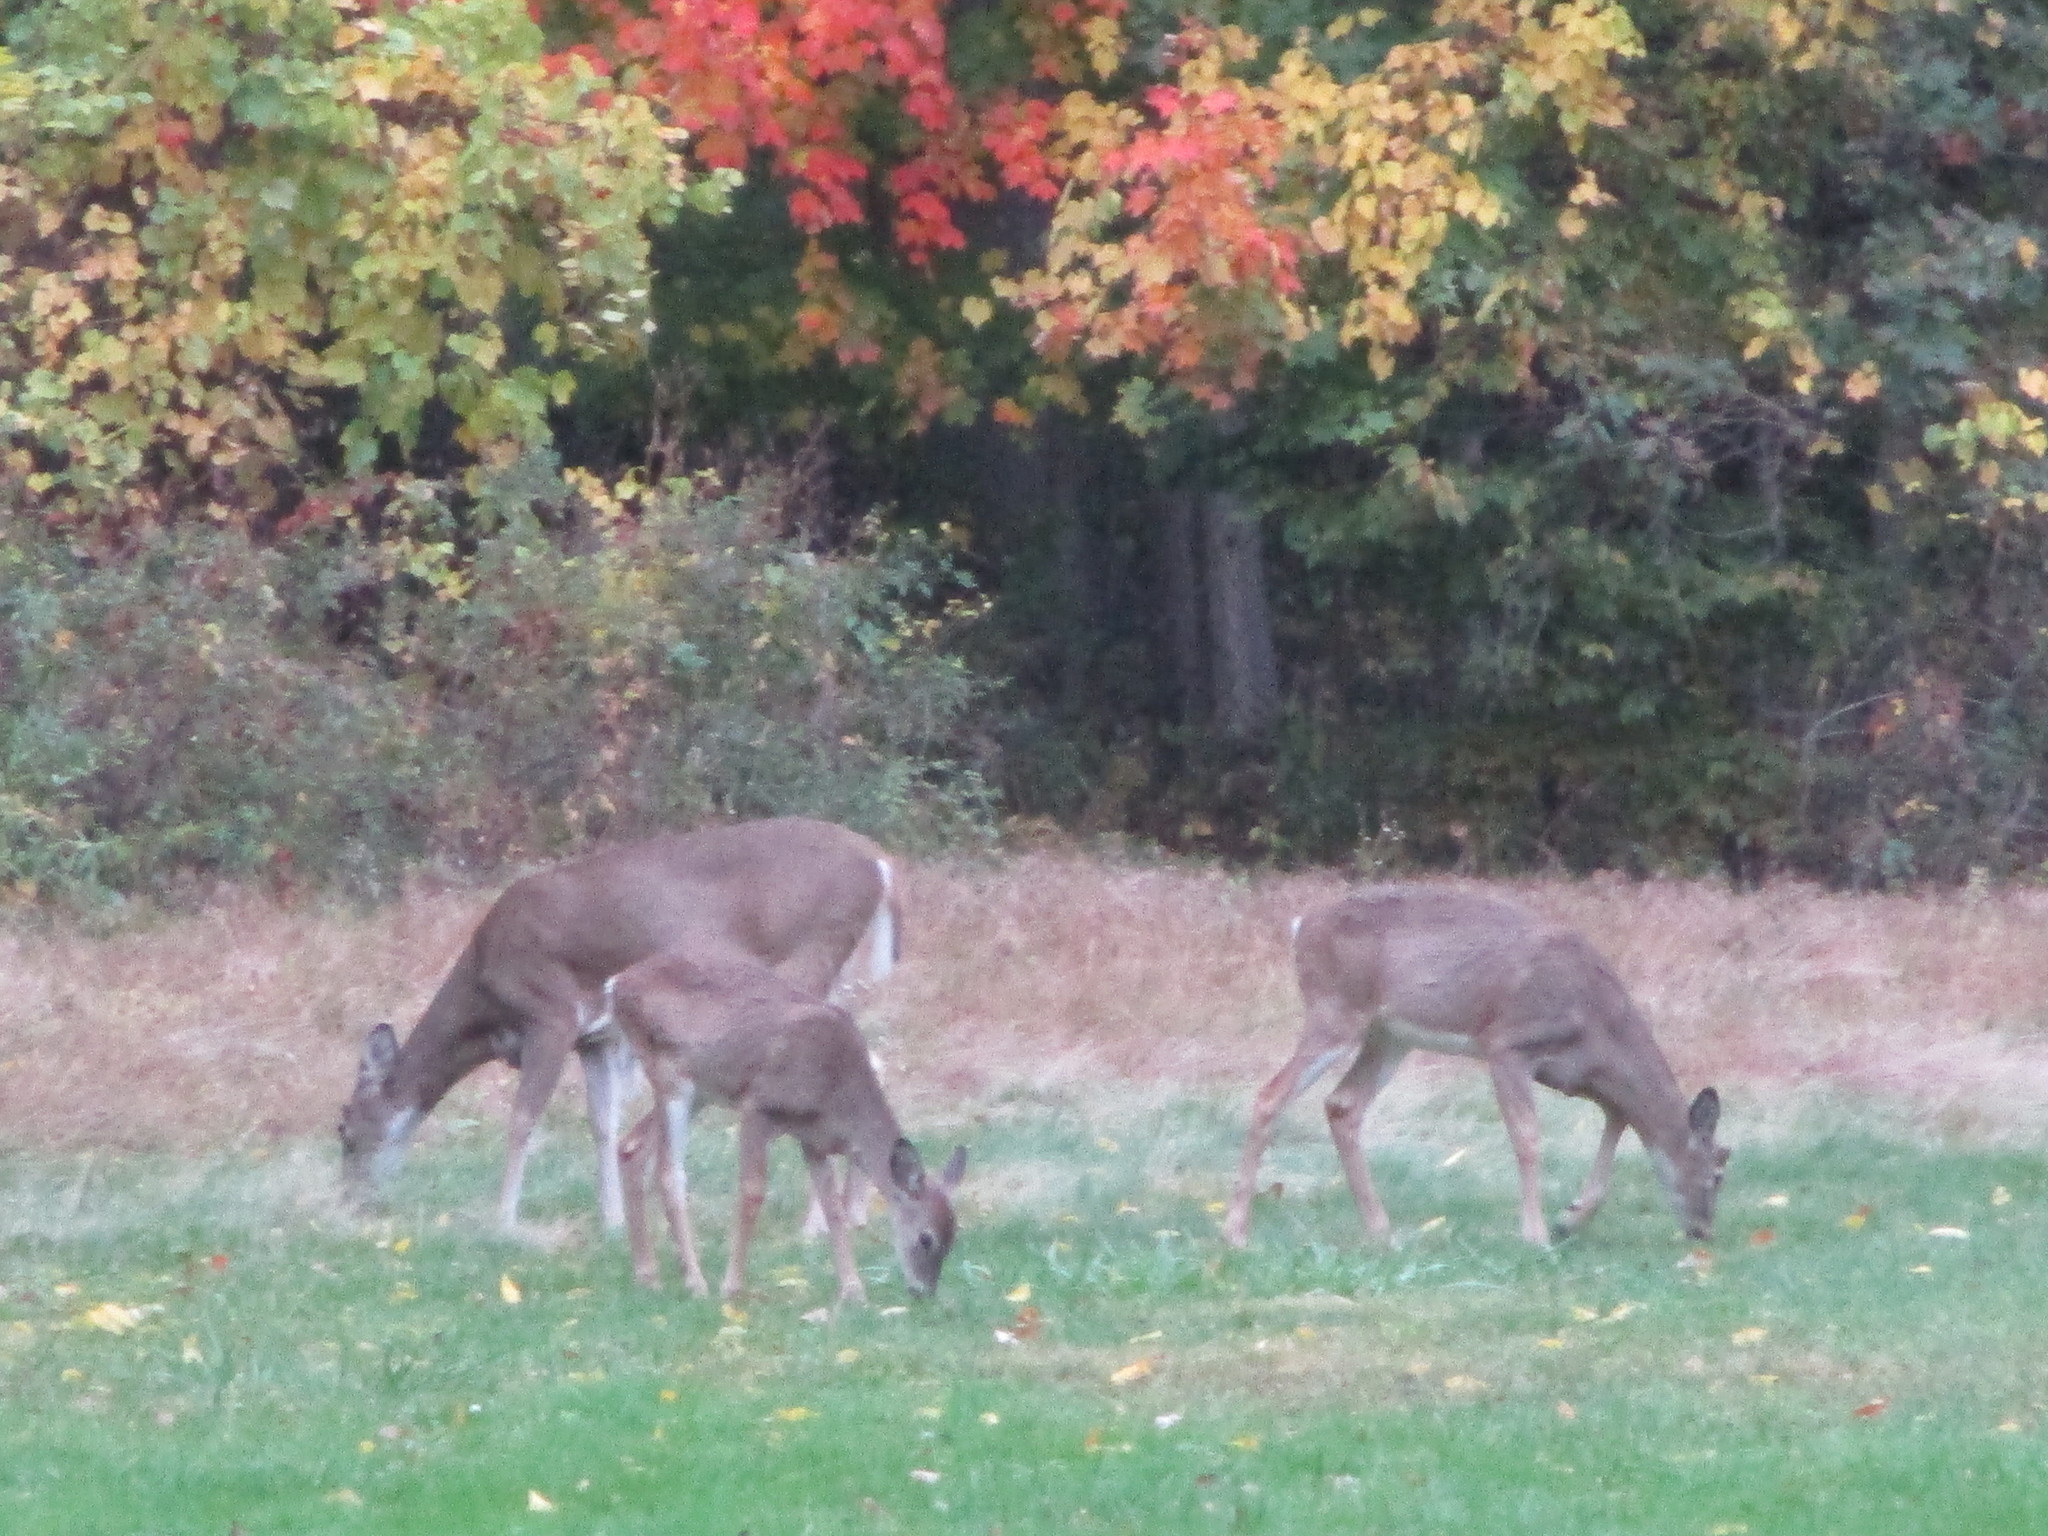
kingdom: Animalia
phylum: Chordata
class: Mammalia
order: Artiodactyla
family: Cervidae
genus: Odocoileus
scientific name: Odocoileus virginianus
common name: White-tailed deer
